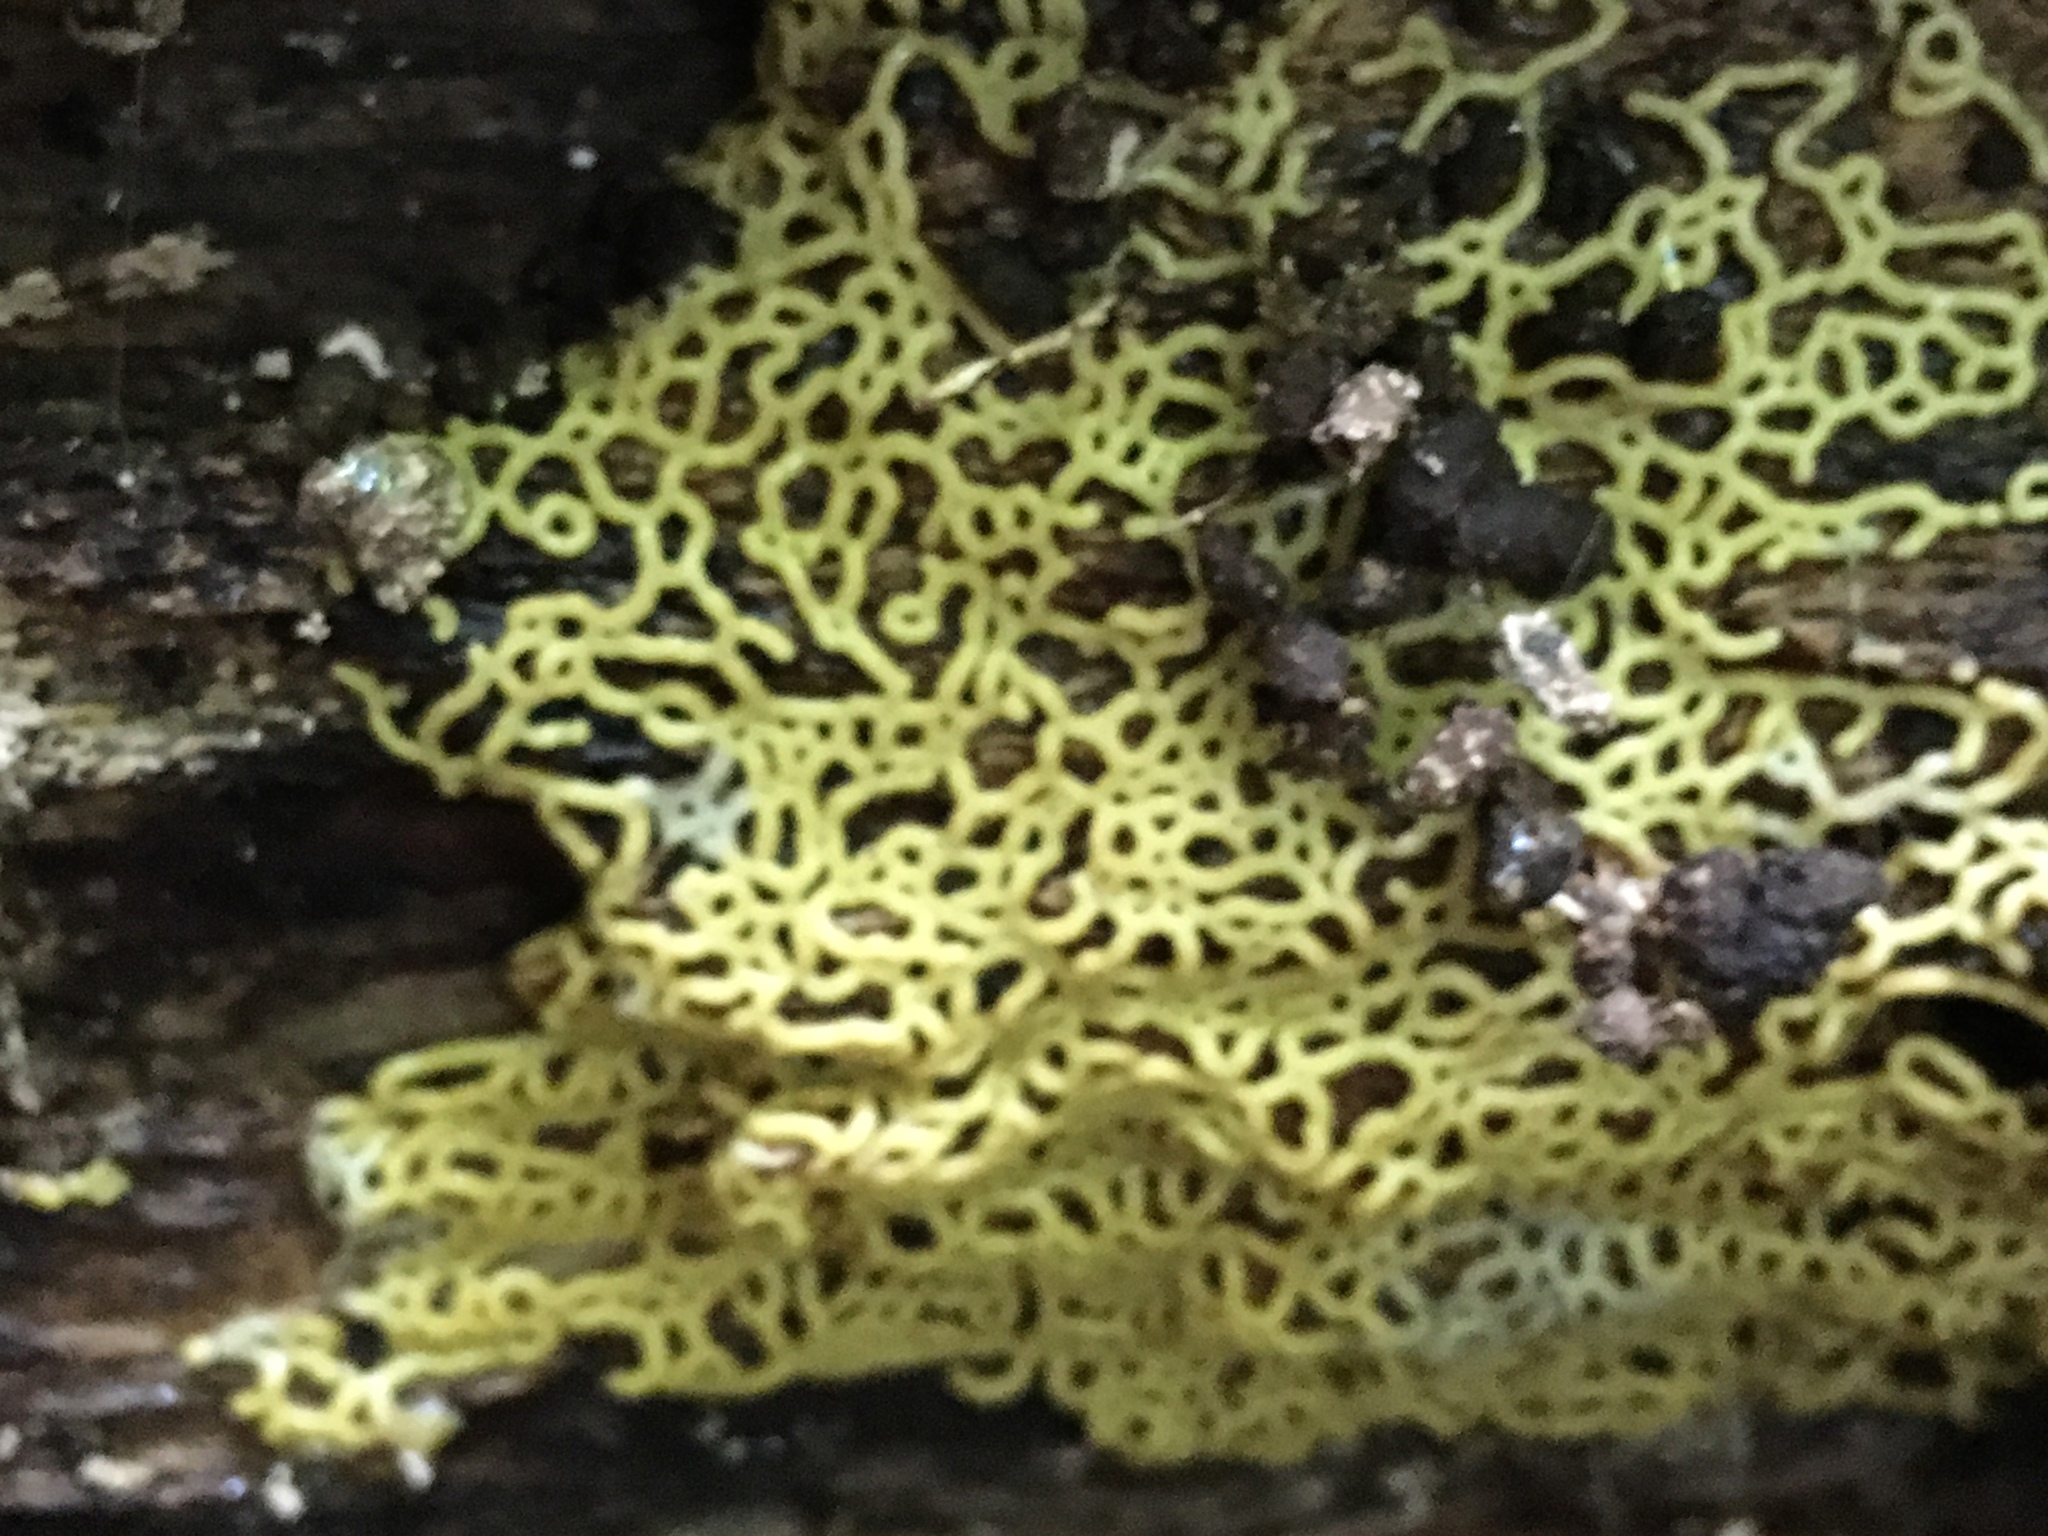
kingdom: Protozoa
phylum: Mycetozoa
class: Myxomycetes
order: Trichiales
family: Arcyriaceae
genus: Hemitrichia
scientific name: Hemitrichia serpula
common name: Pretzel slime mold
